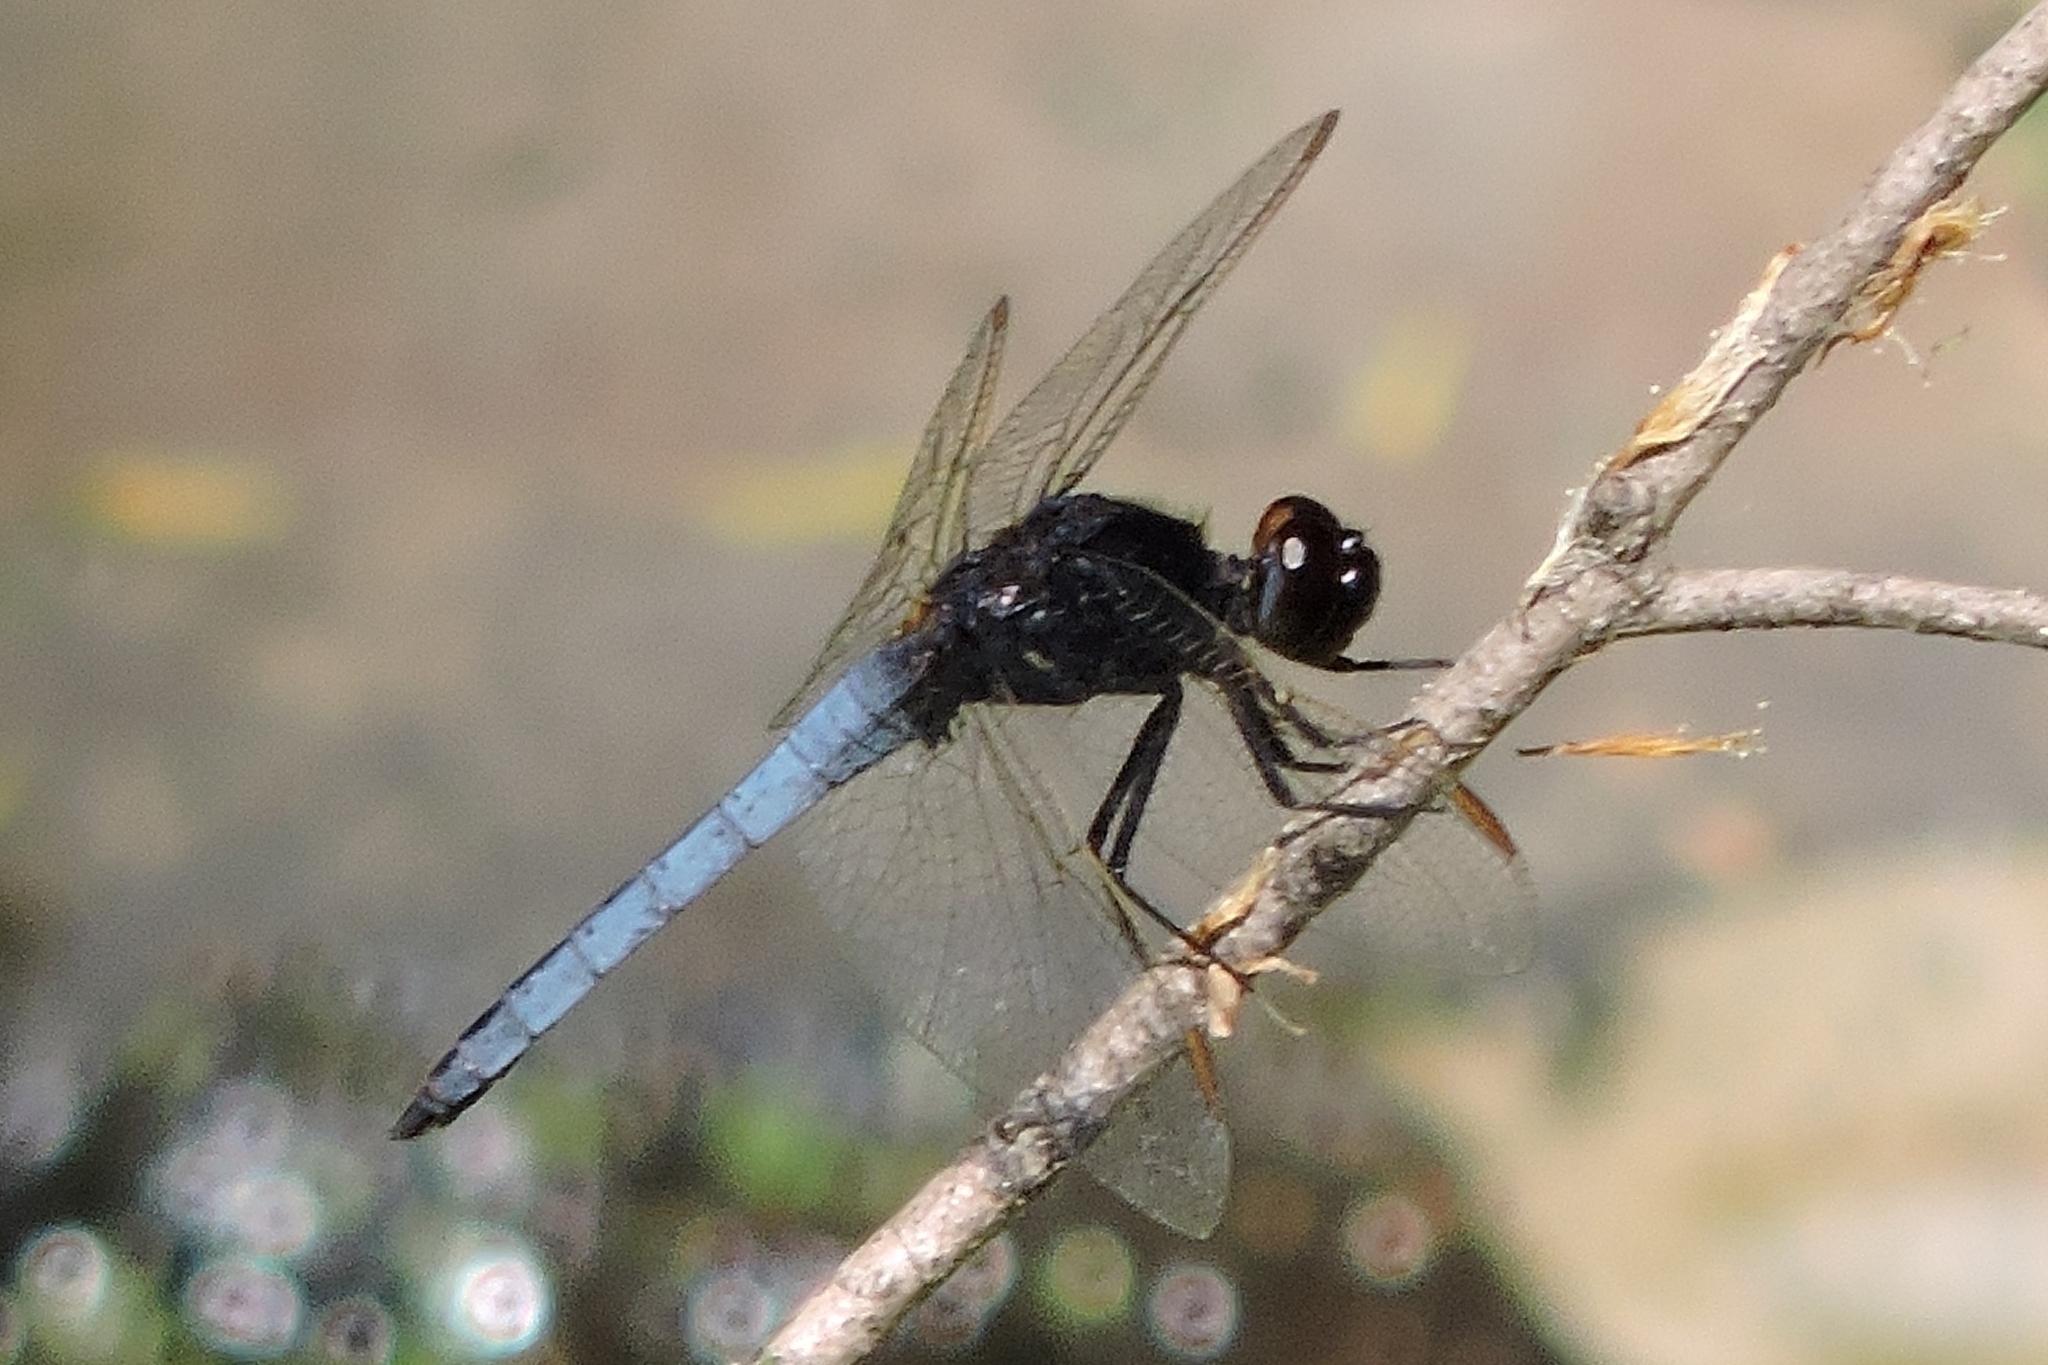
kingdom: Animalia
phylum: Arthropoda
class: Insecta
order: Odonata
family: Libellulidae
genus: Crocothemis
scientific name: Crocothemis nigrifrons
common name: Black-headed skimmer
